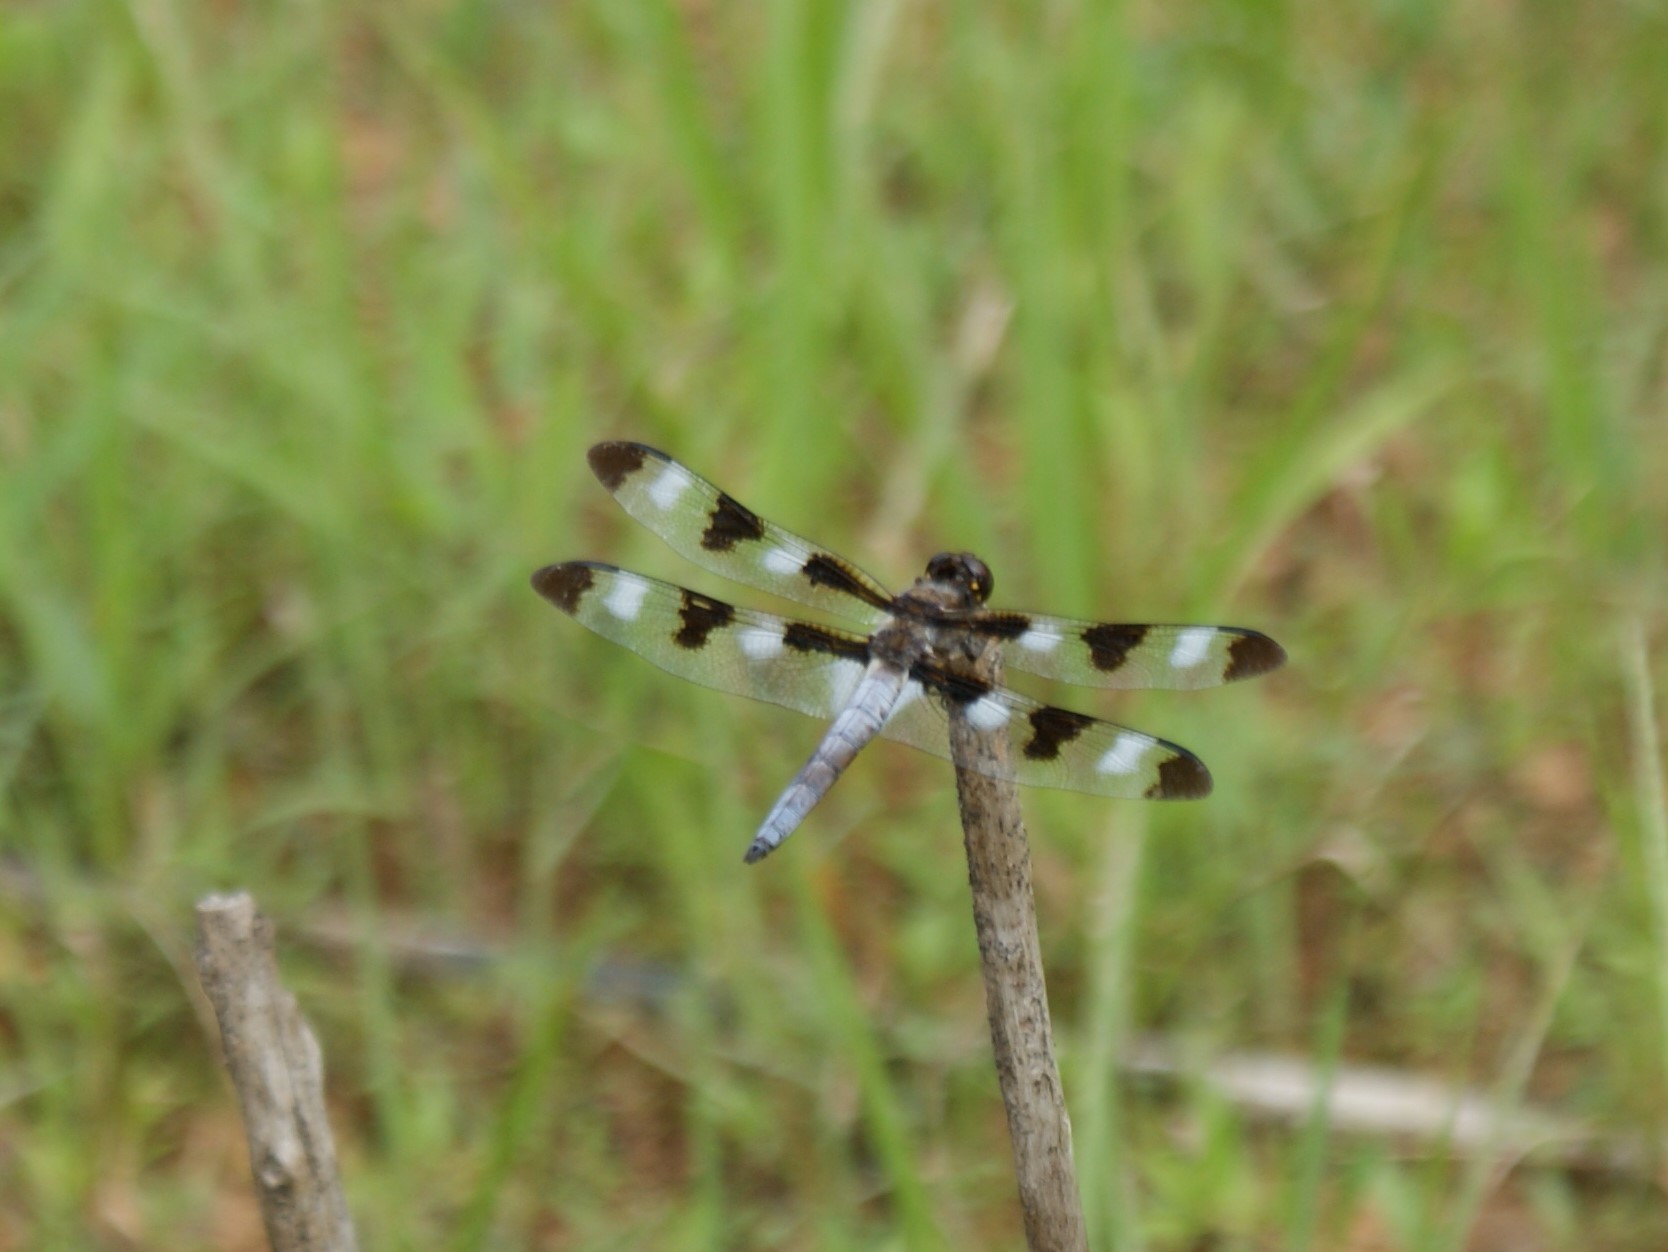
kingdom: Animalia
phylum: Arthropoda
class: Insecta
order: Odonata
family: Libellulidae
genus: Libellula
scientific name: Libellula pulchella
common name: Twelve-spotted skimmer
